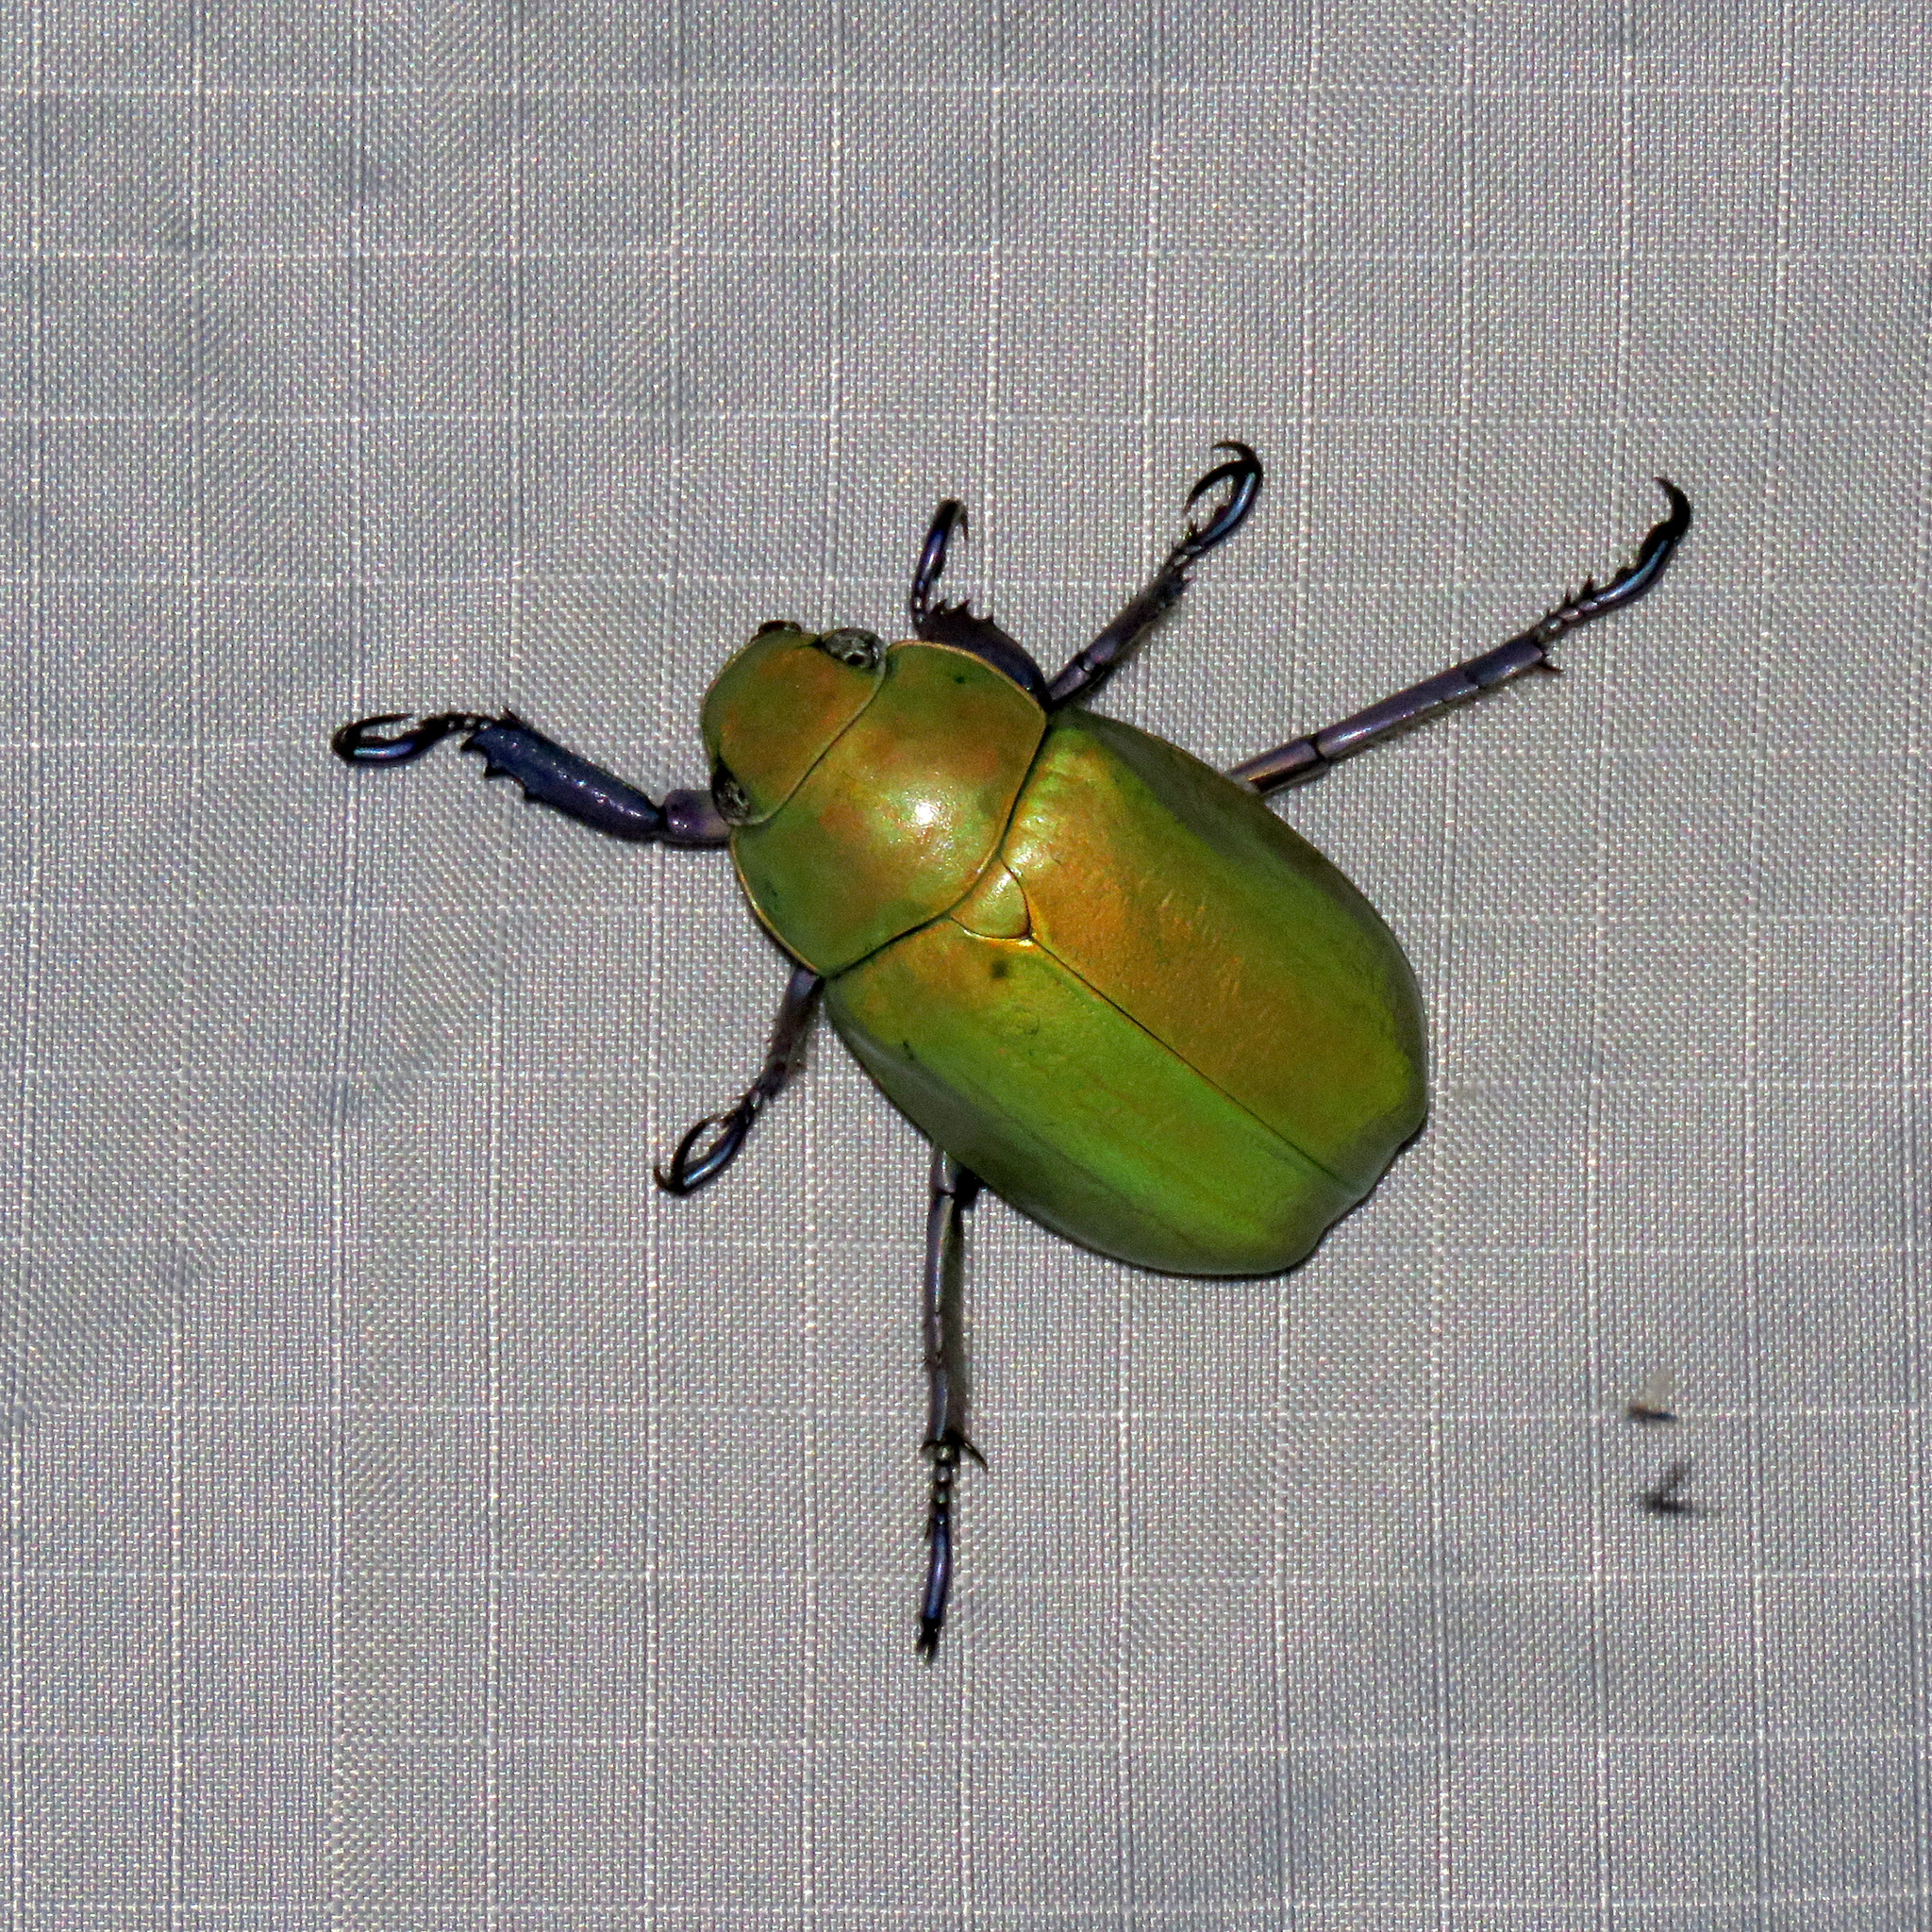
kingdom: Animalia
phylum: Arthropoda
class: Insecta
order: Coleoptera
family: Scarabaeidae
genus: Chrysina
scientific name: Chrysina beyeri
